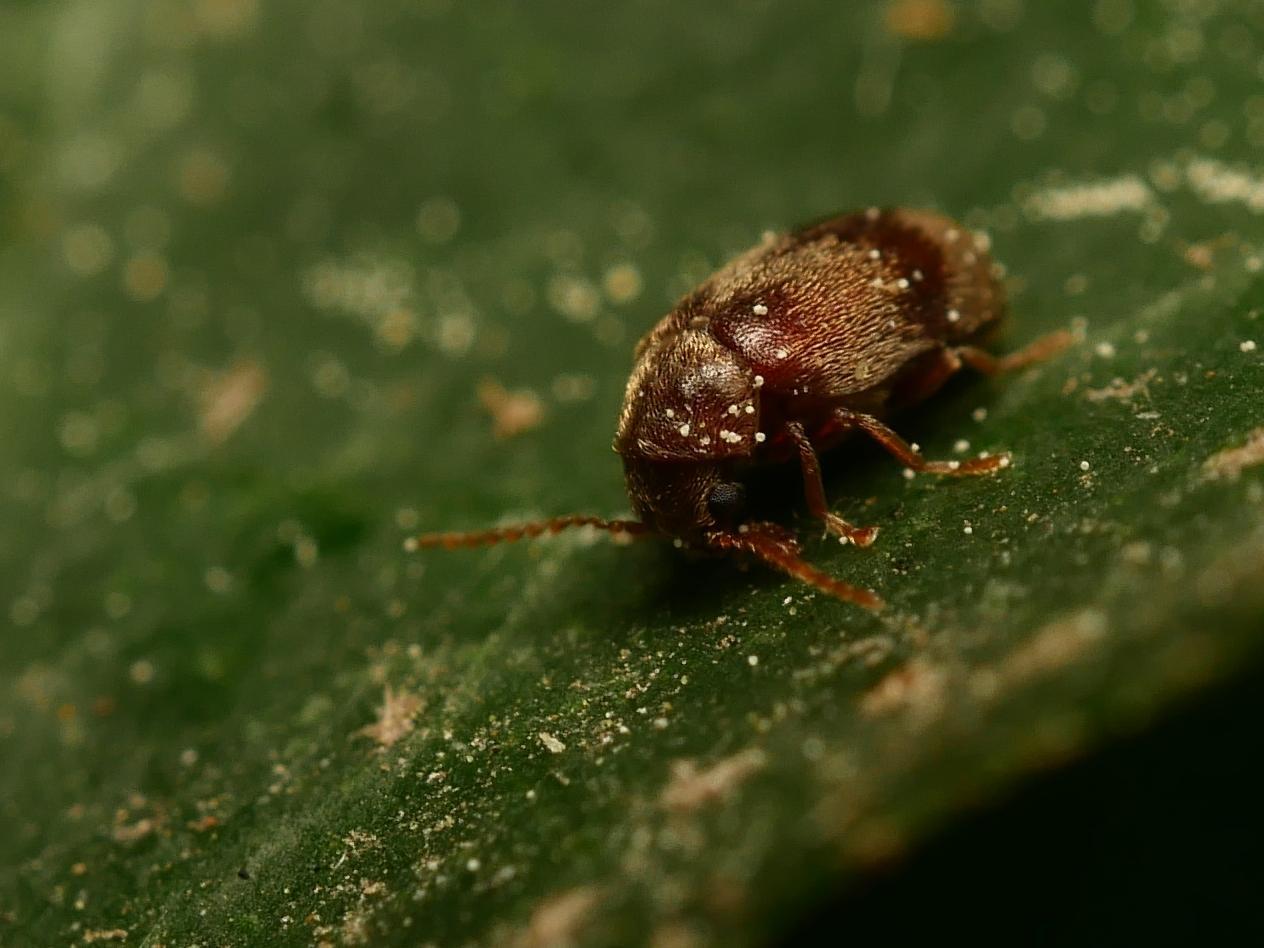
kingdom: Animalia
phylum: Arthropoda
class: Insecta
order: Coleoptera
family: Ptinidae
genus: Ochina
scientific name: Ochina ptinoides
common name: Ivy boring beetle
